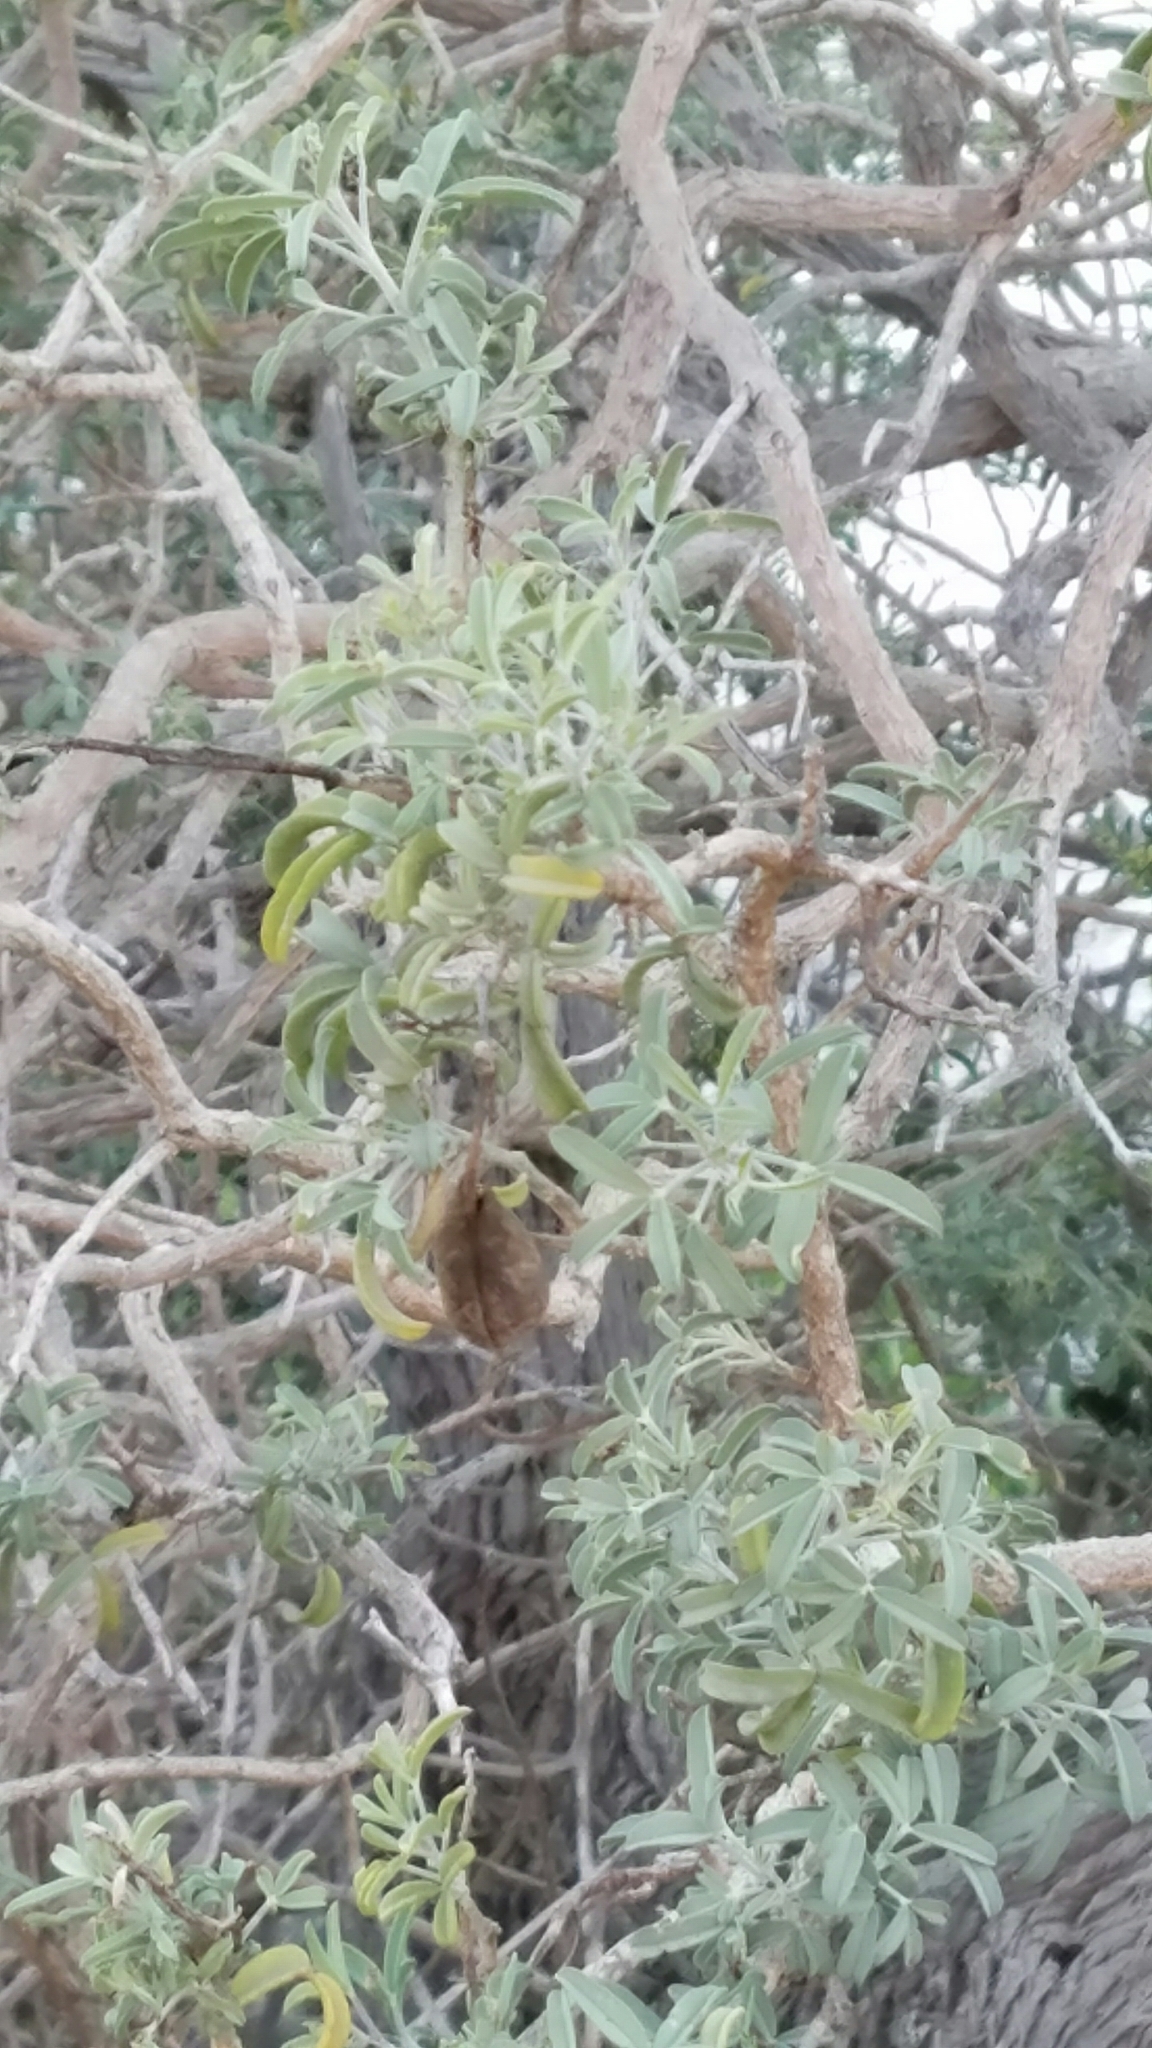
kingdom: Plantae
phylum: Tracheophyta
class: Magnoliopsida
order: Brassicales
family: Cleomaceae
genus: Cleomella
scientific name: Cleomella arborea
